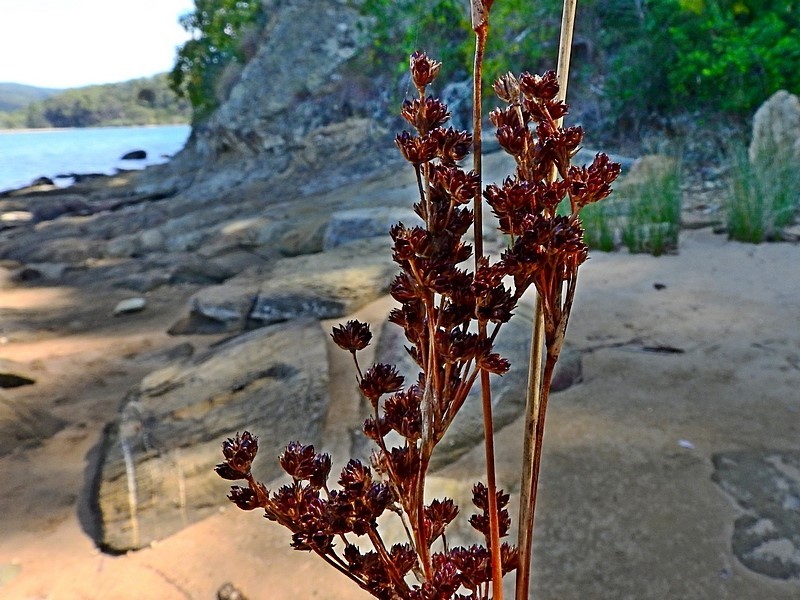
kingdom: Plantae
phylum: Tracheophyta
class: Liliopsida
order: Poales
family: Juncaceae
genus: Juncus
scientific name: Juncus kraussii
